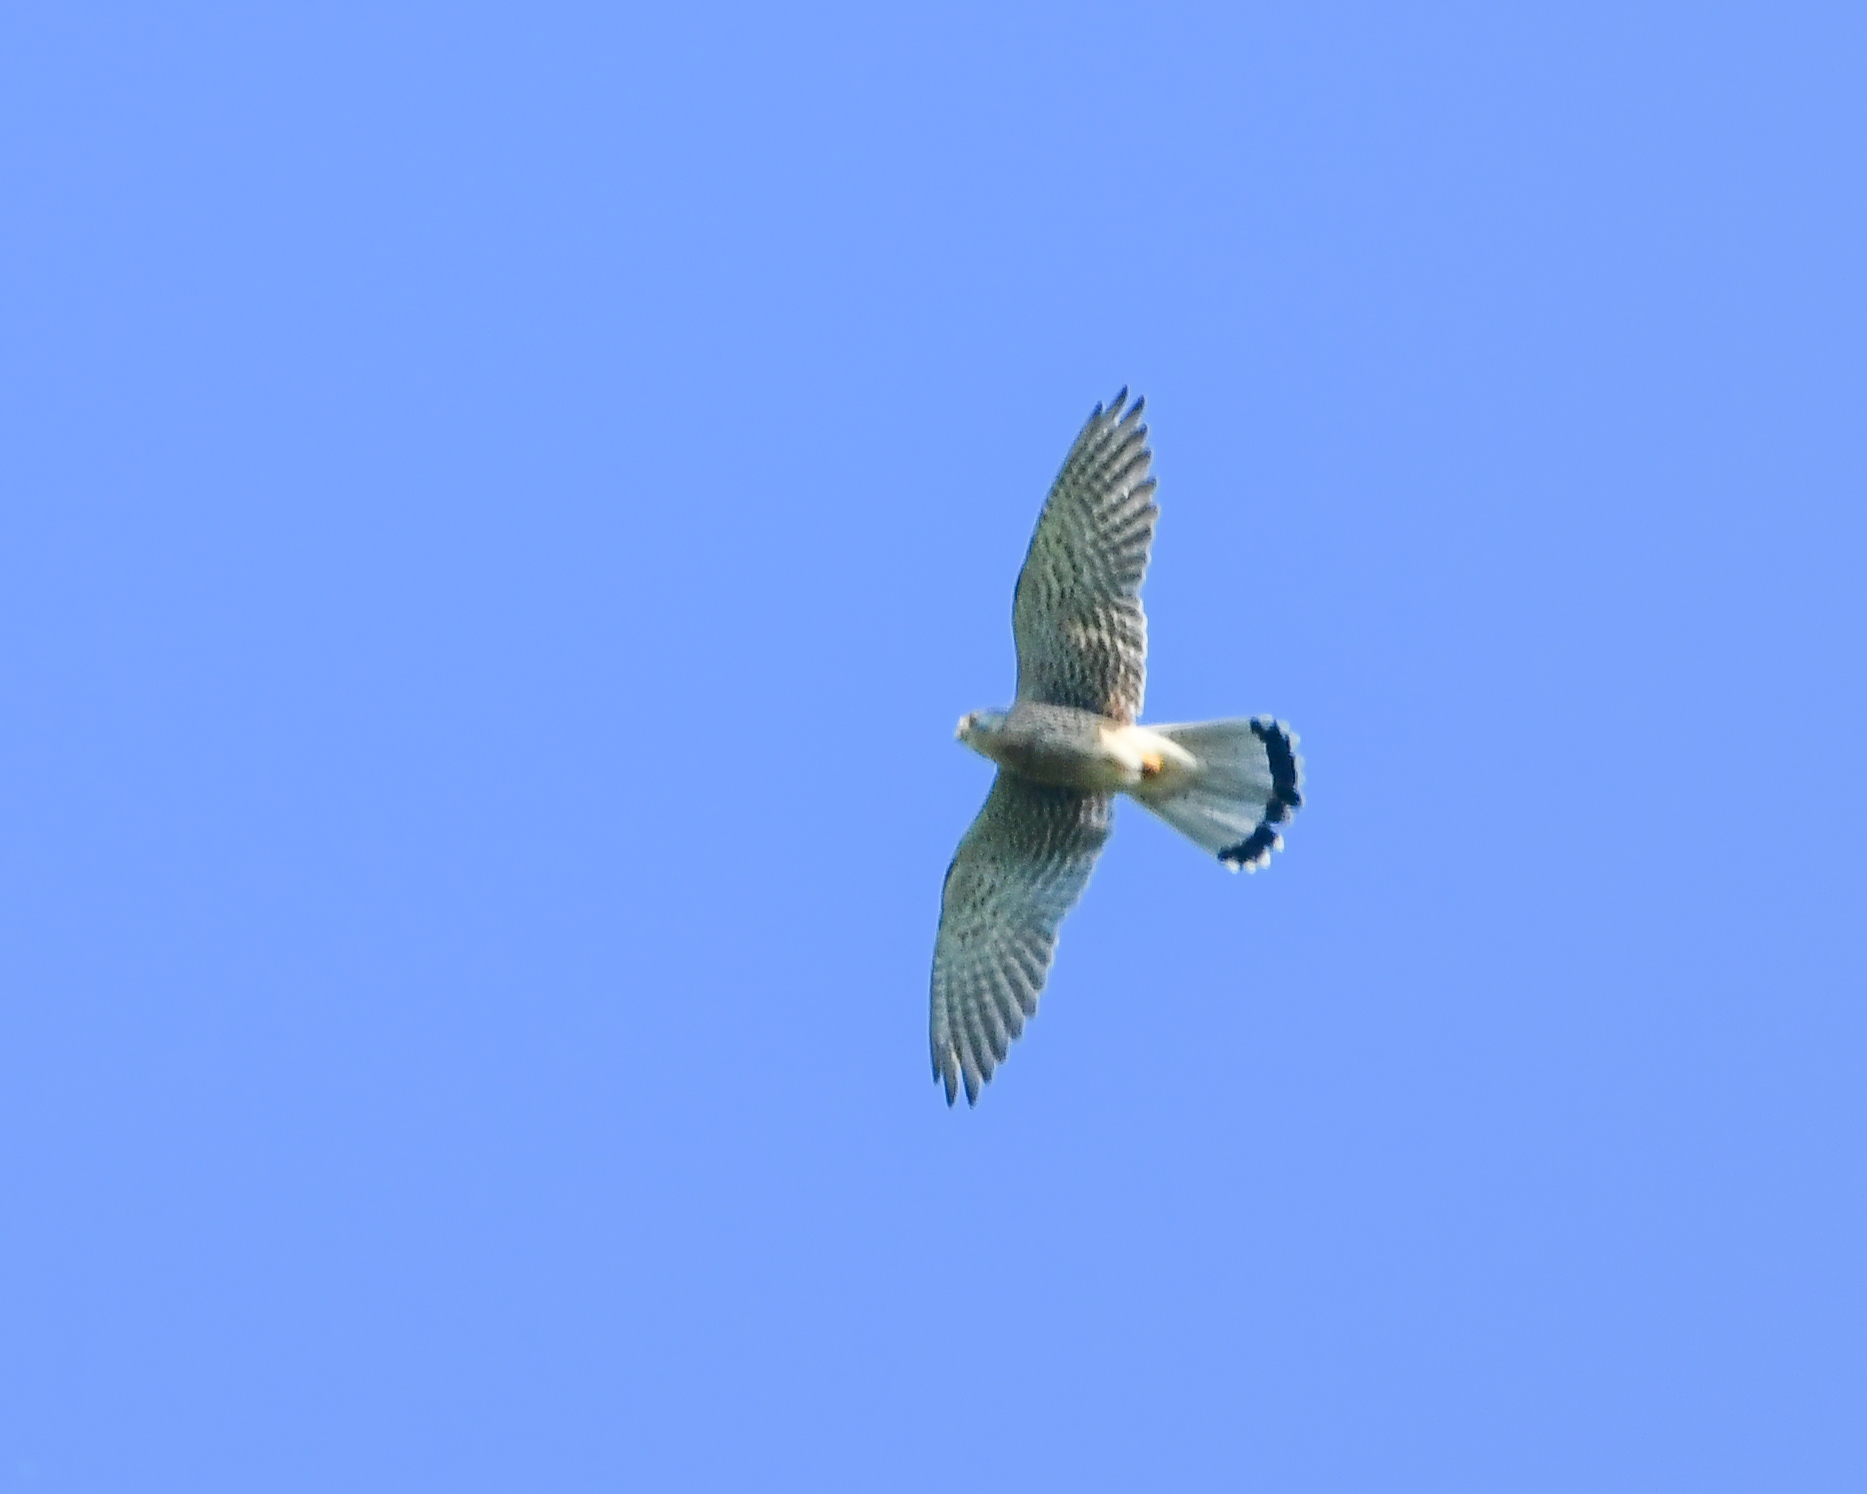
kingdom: Animalia
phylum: Chordata
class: Aves
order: Falconiformes
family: Falconidae
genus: Falco
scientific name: Falco tinnunculus
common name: Common kestrel
